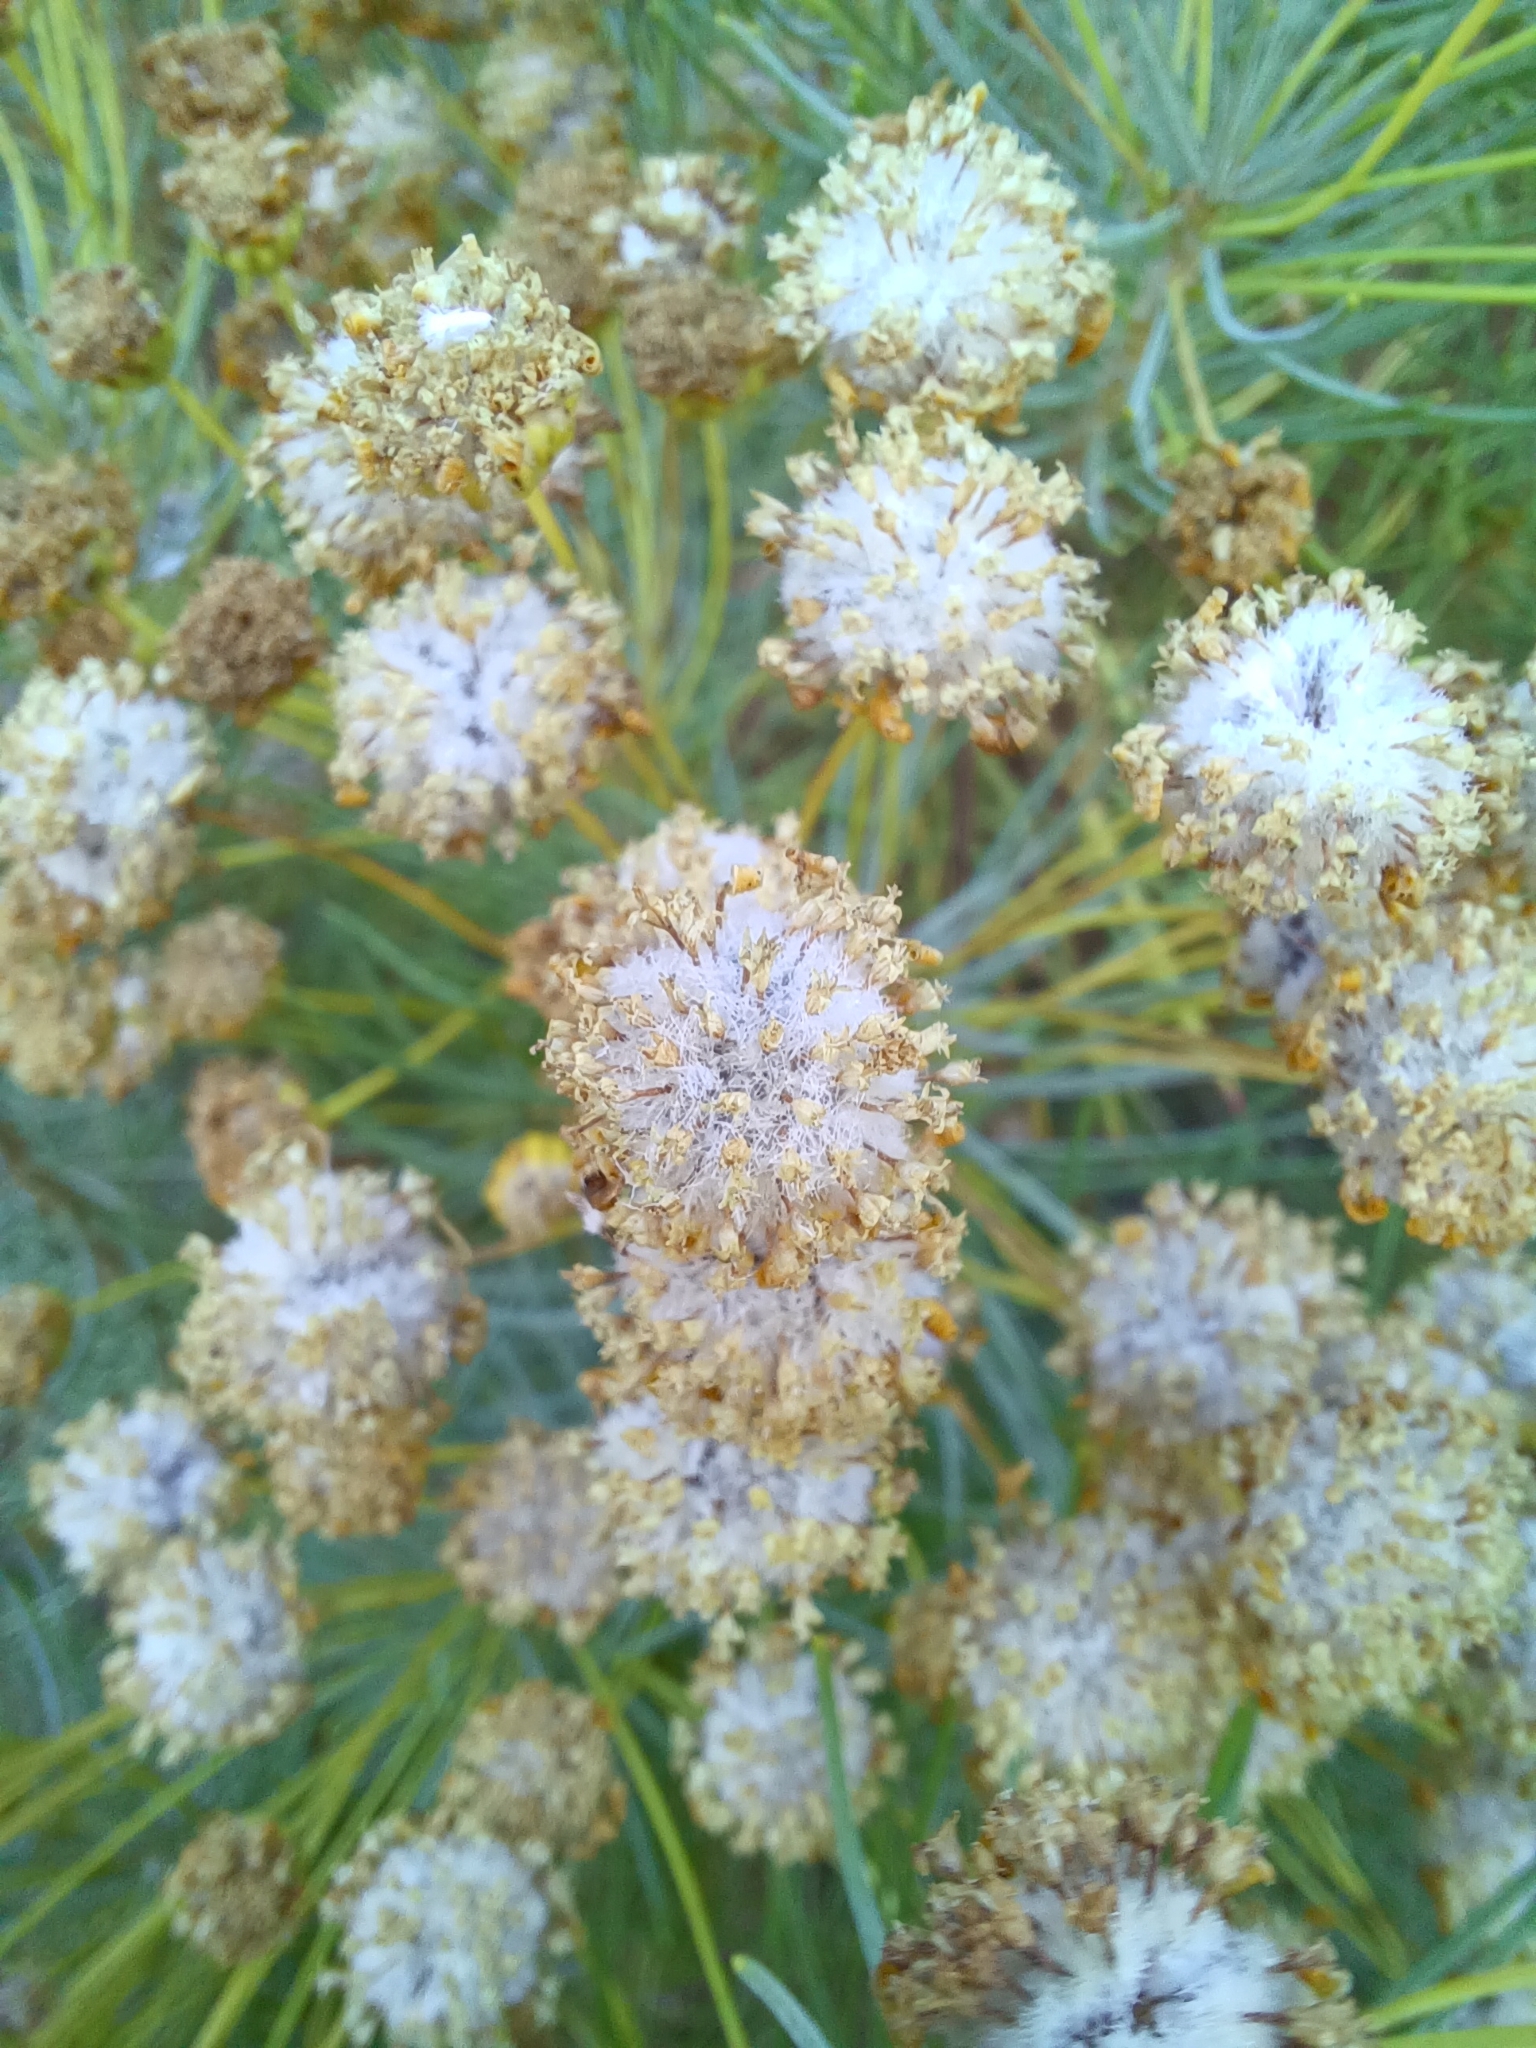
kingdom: Plantae
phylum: Tracheophyta
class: Magnoliopsida
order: Asterales
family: Asteraceae
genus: Euryops
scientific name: Euryops tenuissimus
